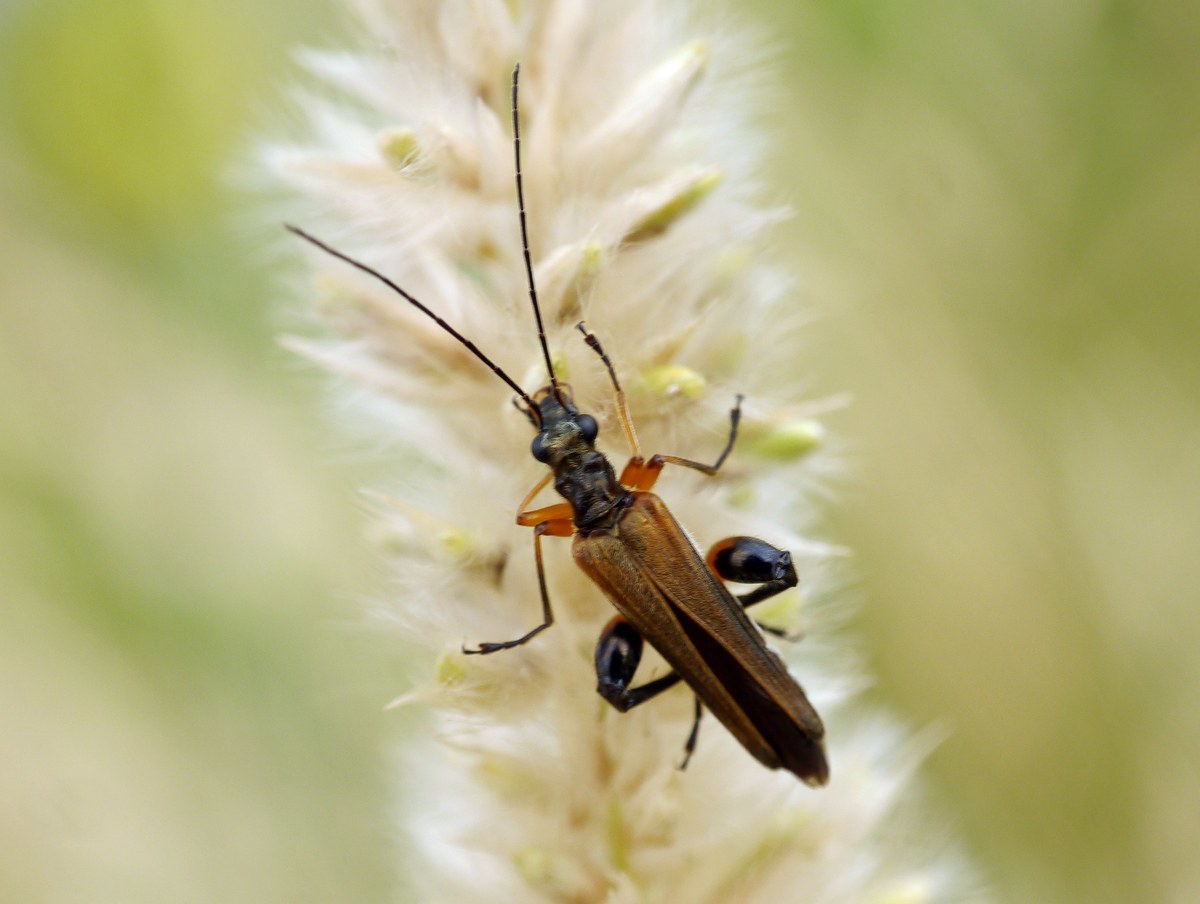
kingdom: Animalia
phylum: Arthropoda
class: Insecta
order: Coleoptera
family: Oedemeridae
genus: Oedemera
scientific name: Oedemera podagrariae
